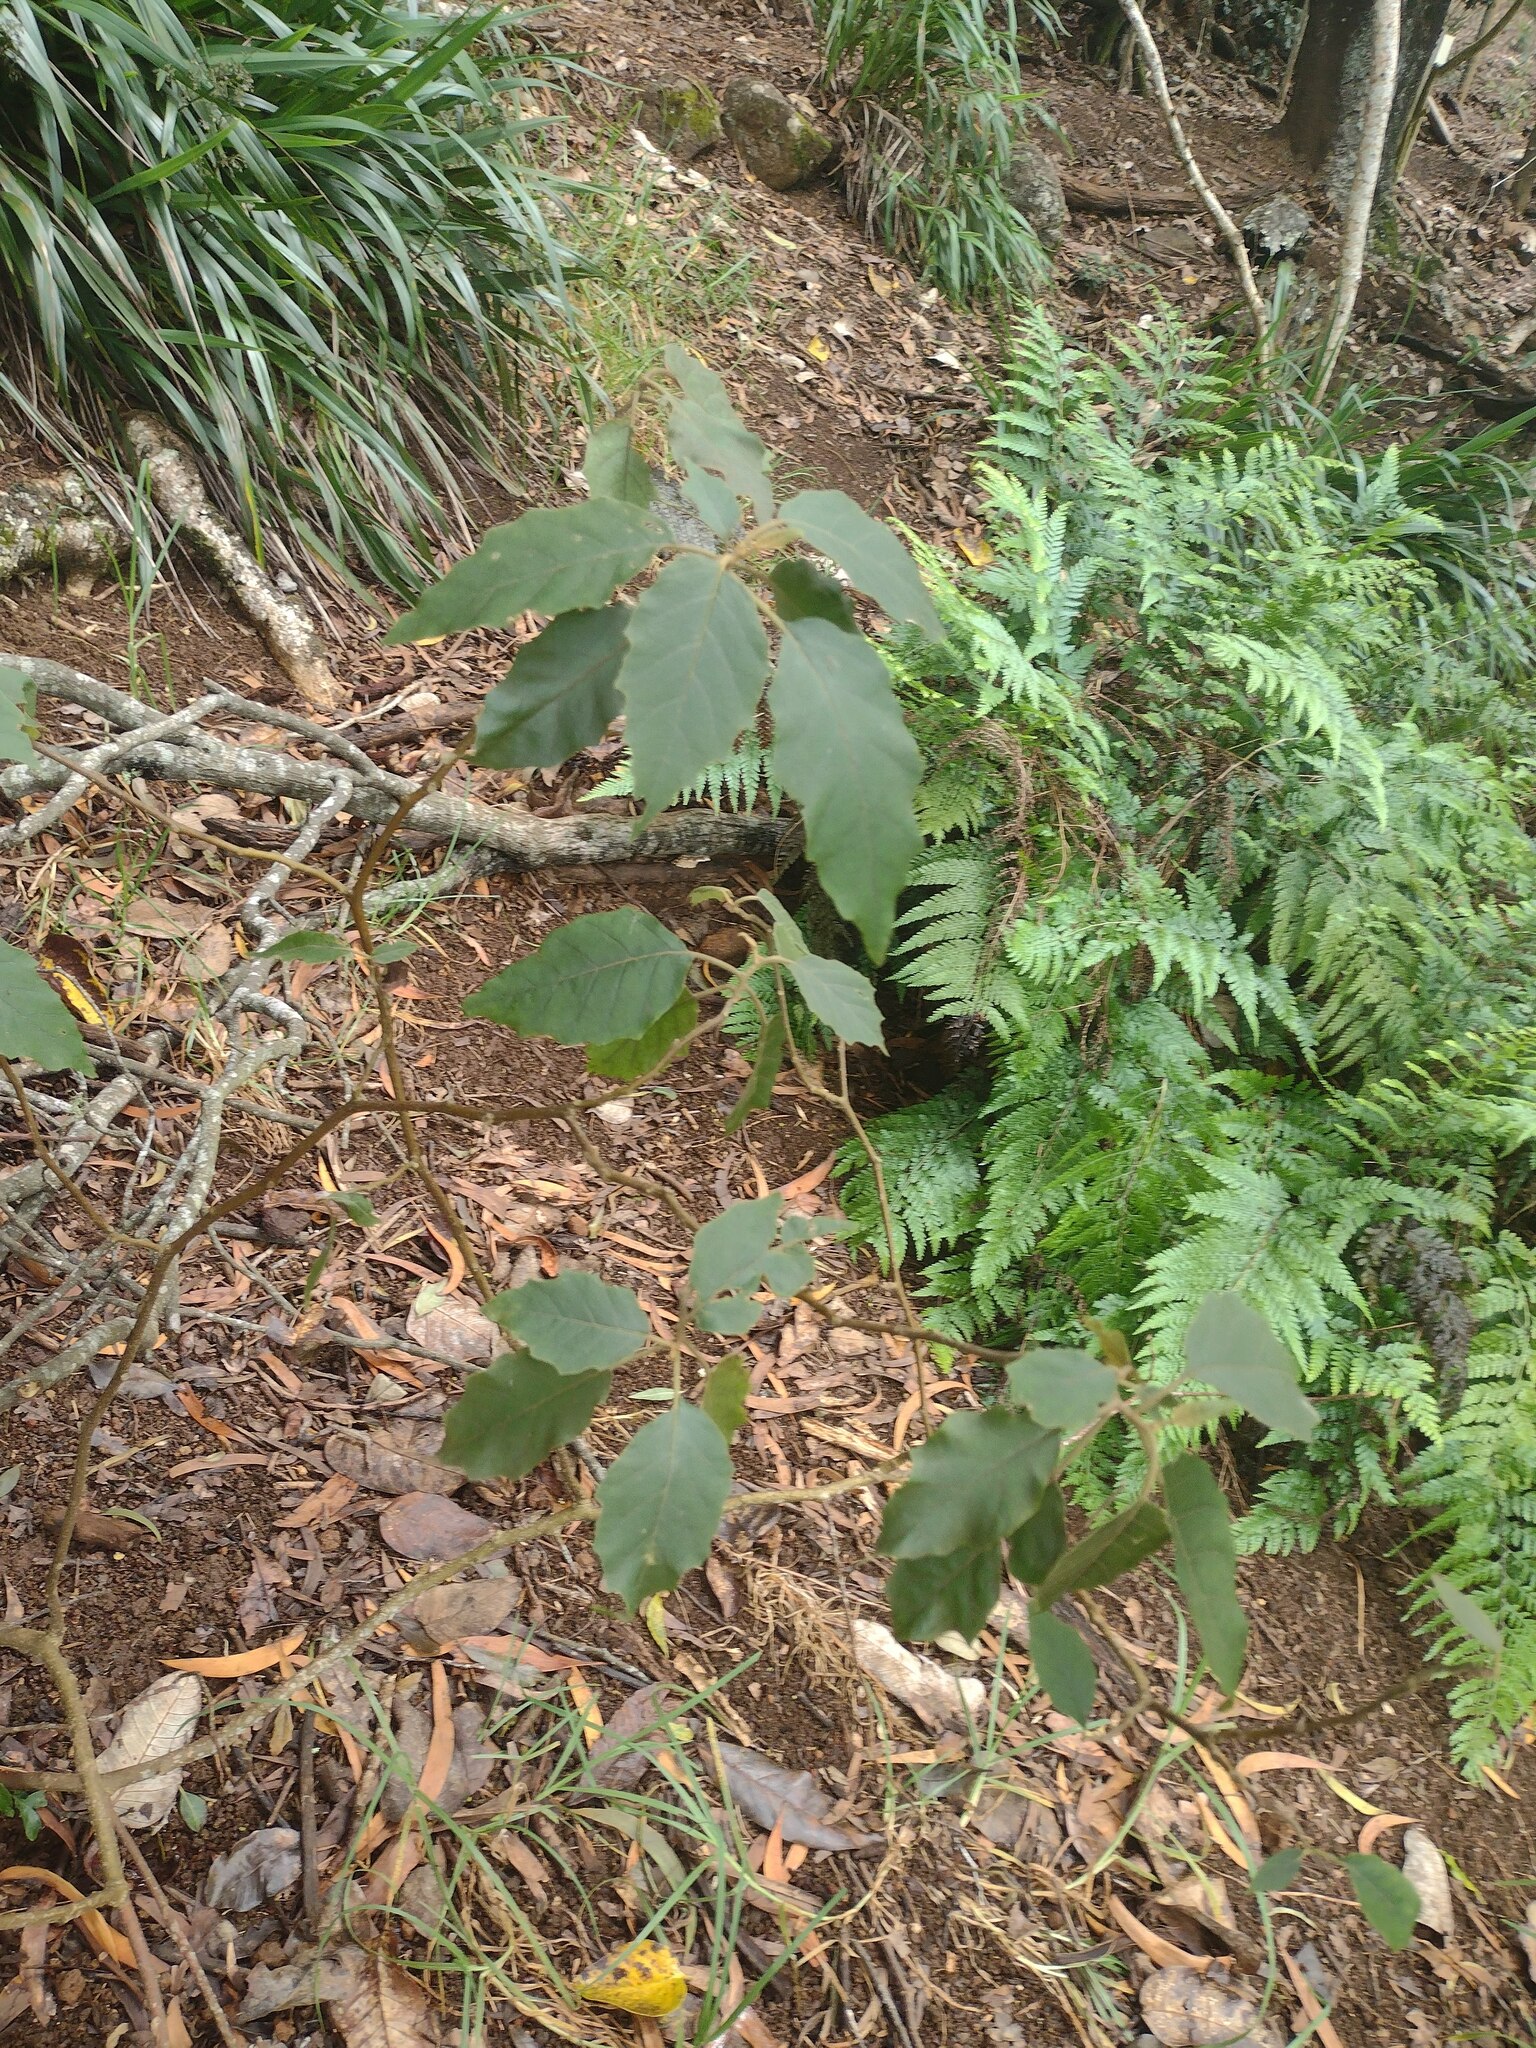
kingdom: Plantae
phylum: Tracheophyta
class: Magnoliopsida
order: Solanales
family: Solanaceae
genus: Solanum
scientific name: Solanum sandwicense
